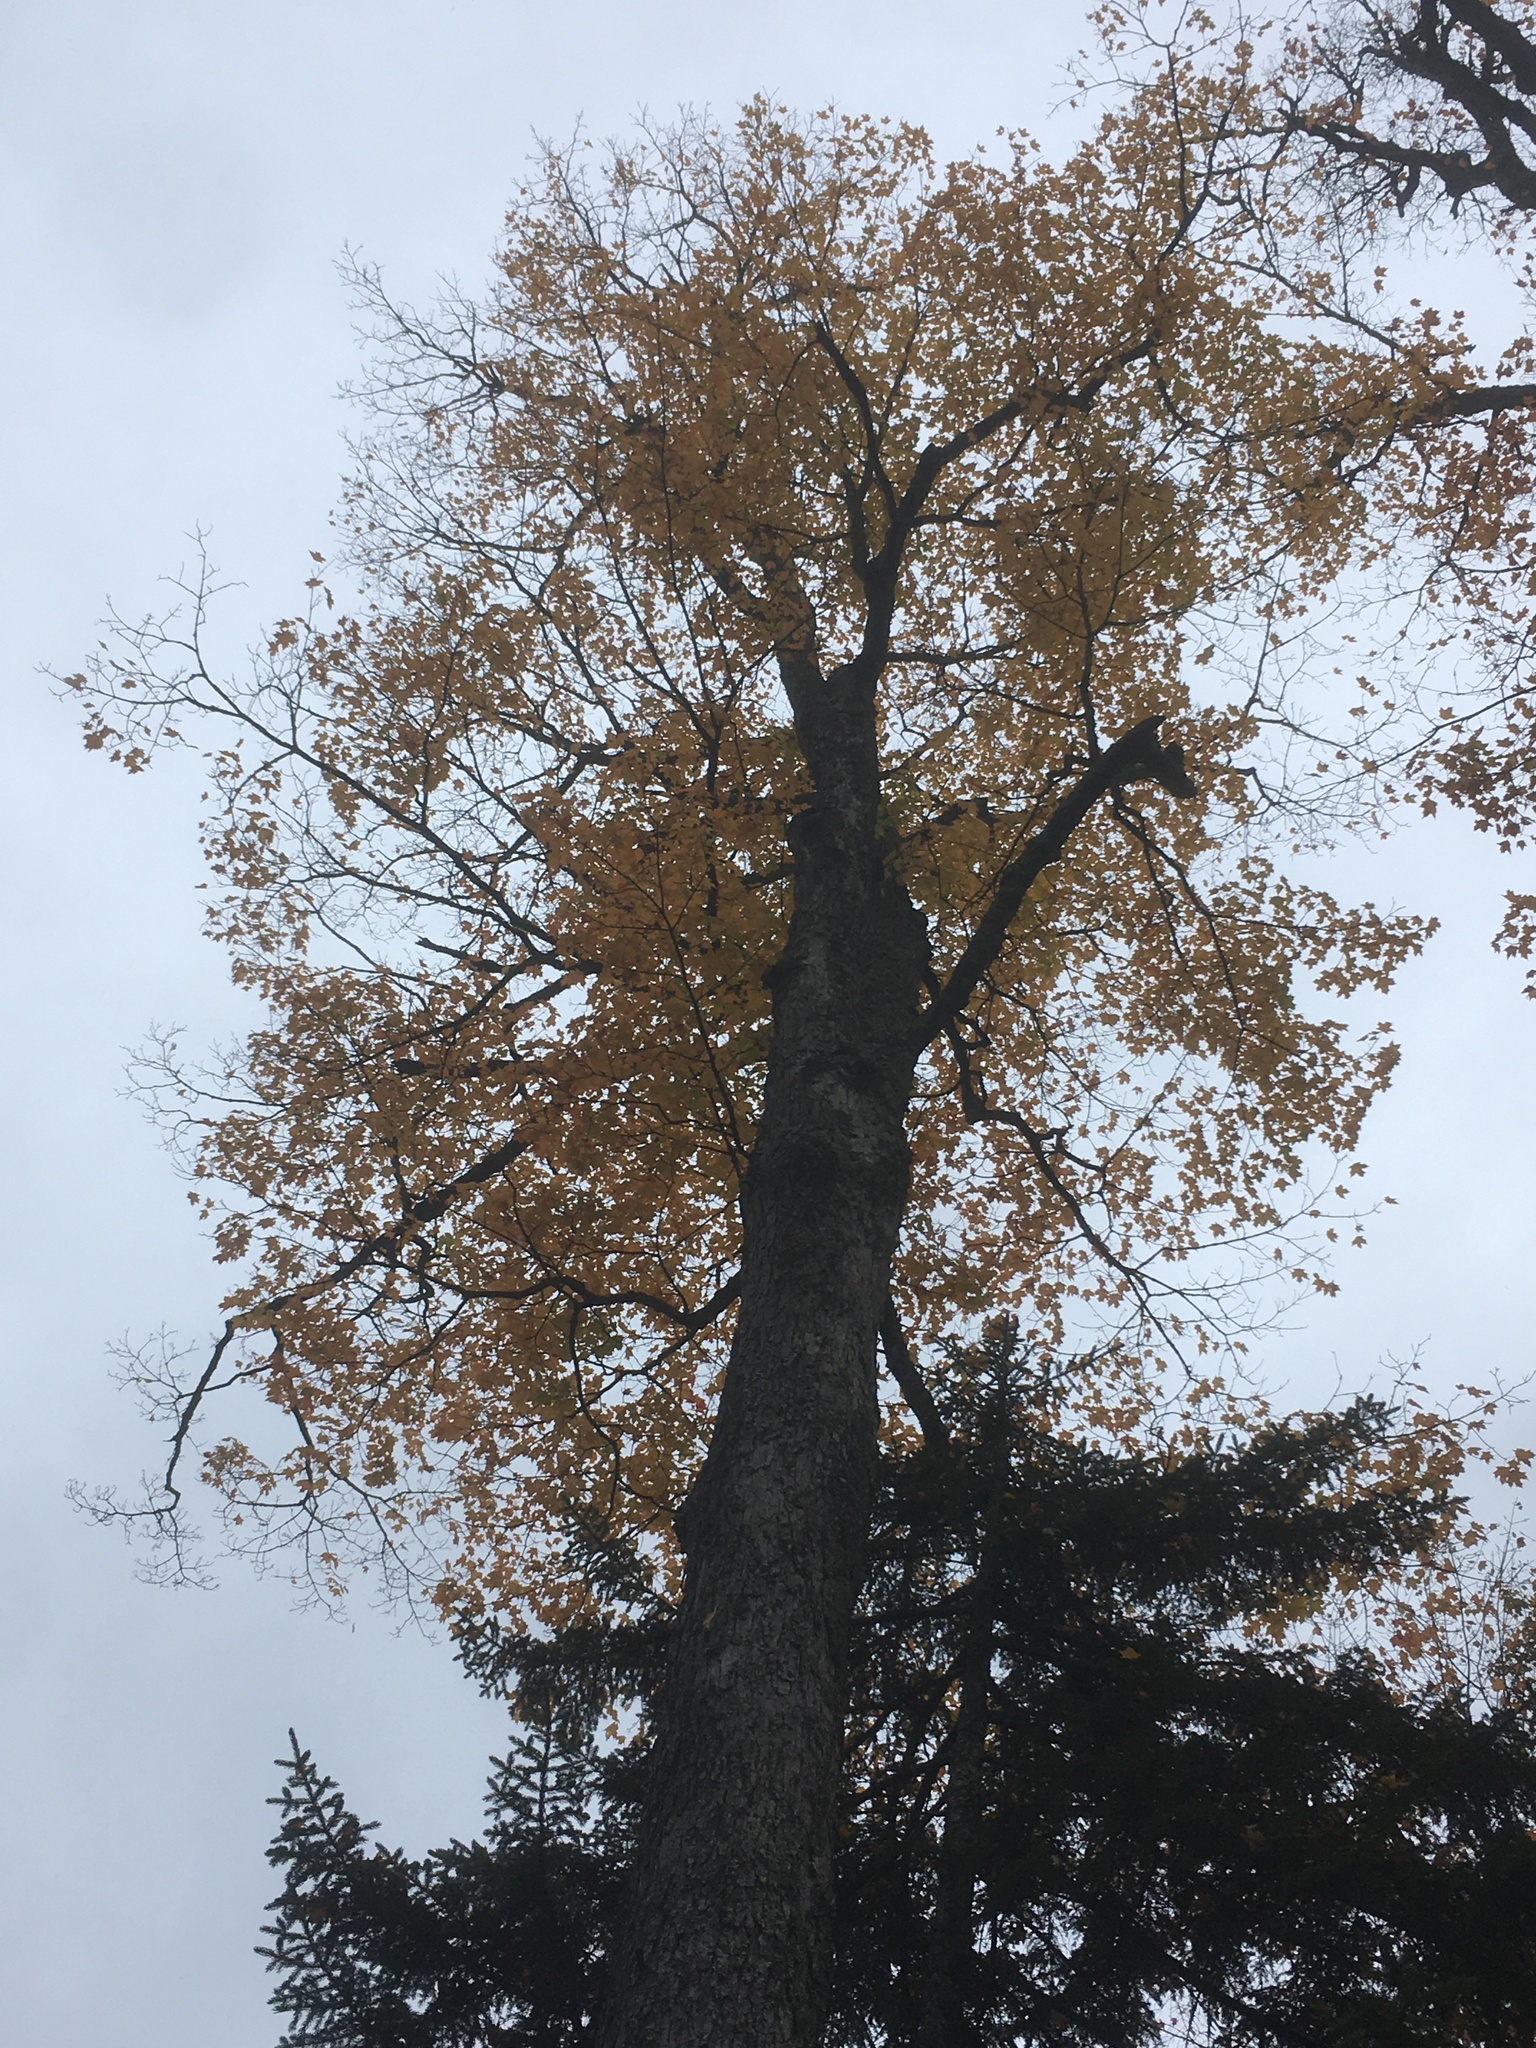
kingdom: Plantae
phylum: Tracheophyta
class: Magnoliopsida
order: Sapindales
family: Sapindaceae
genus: Acer
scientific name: Acer saccharum
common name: Sugar maple
